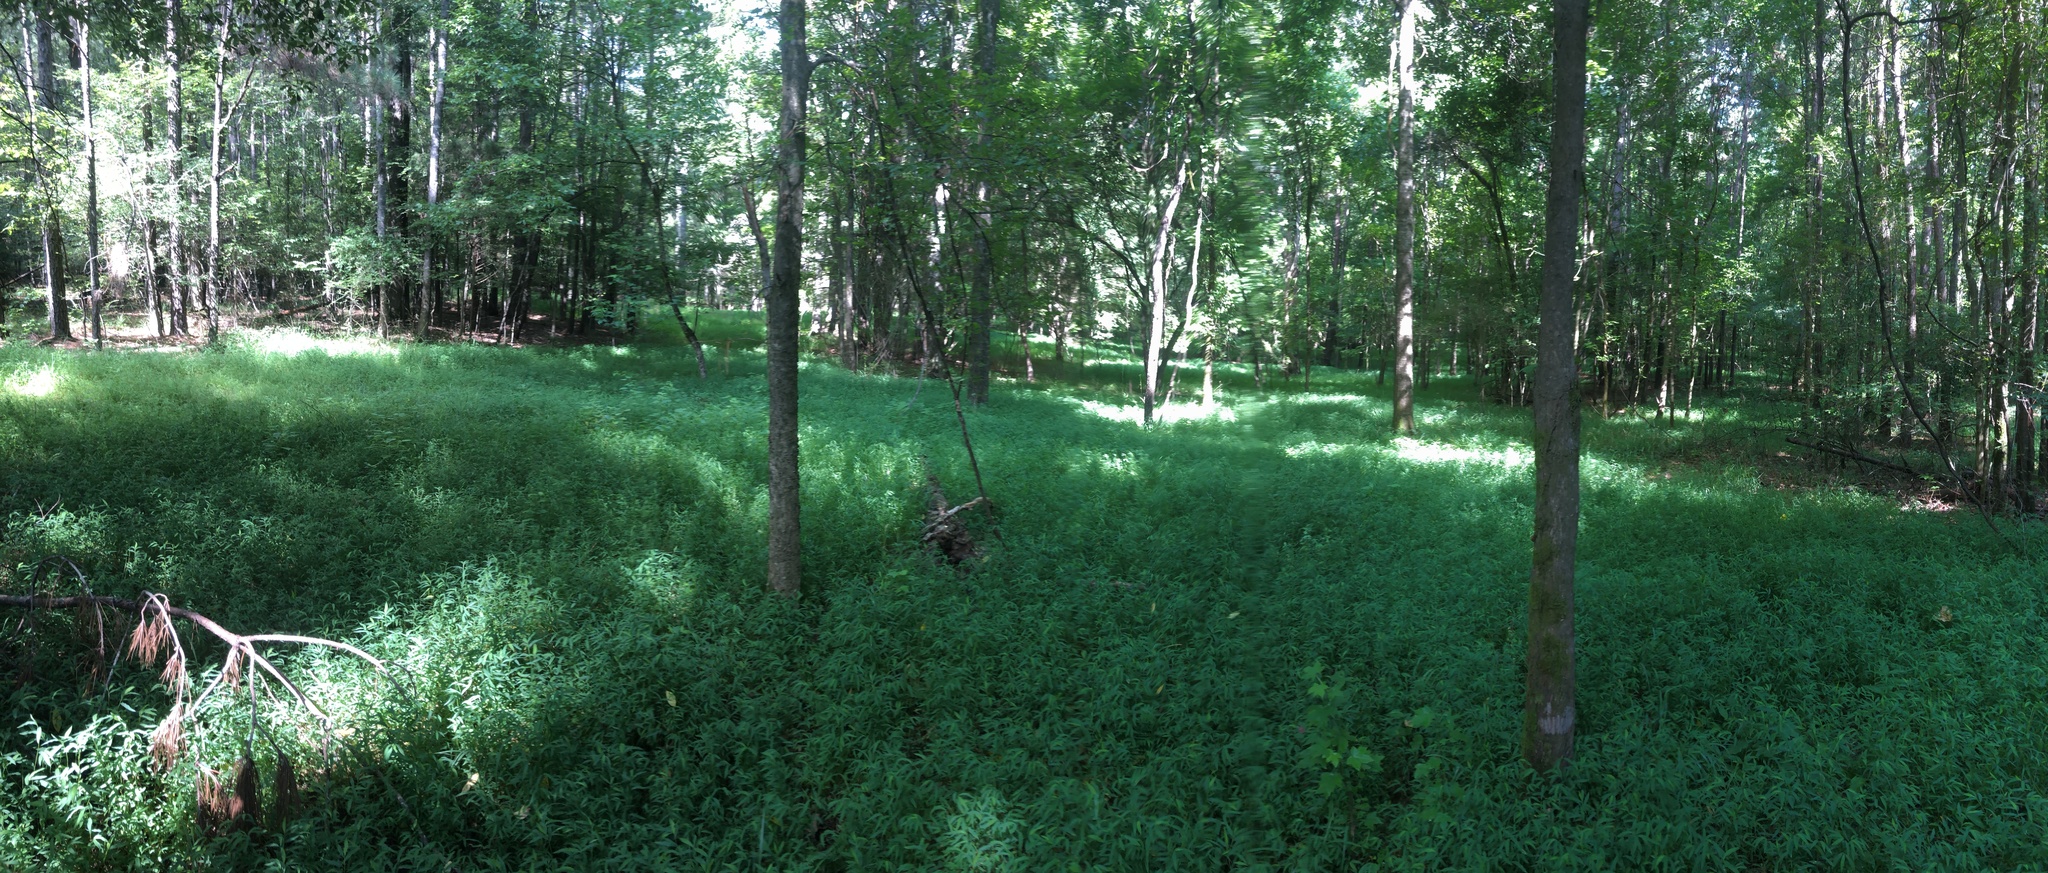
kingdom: Plantae
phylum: Tracheophyta
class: Liliopsida
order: Poales
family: Poaceae
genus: Microstegium
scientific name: Microstegium vimineum
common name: Japanese stiltgrass
